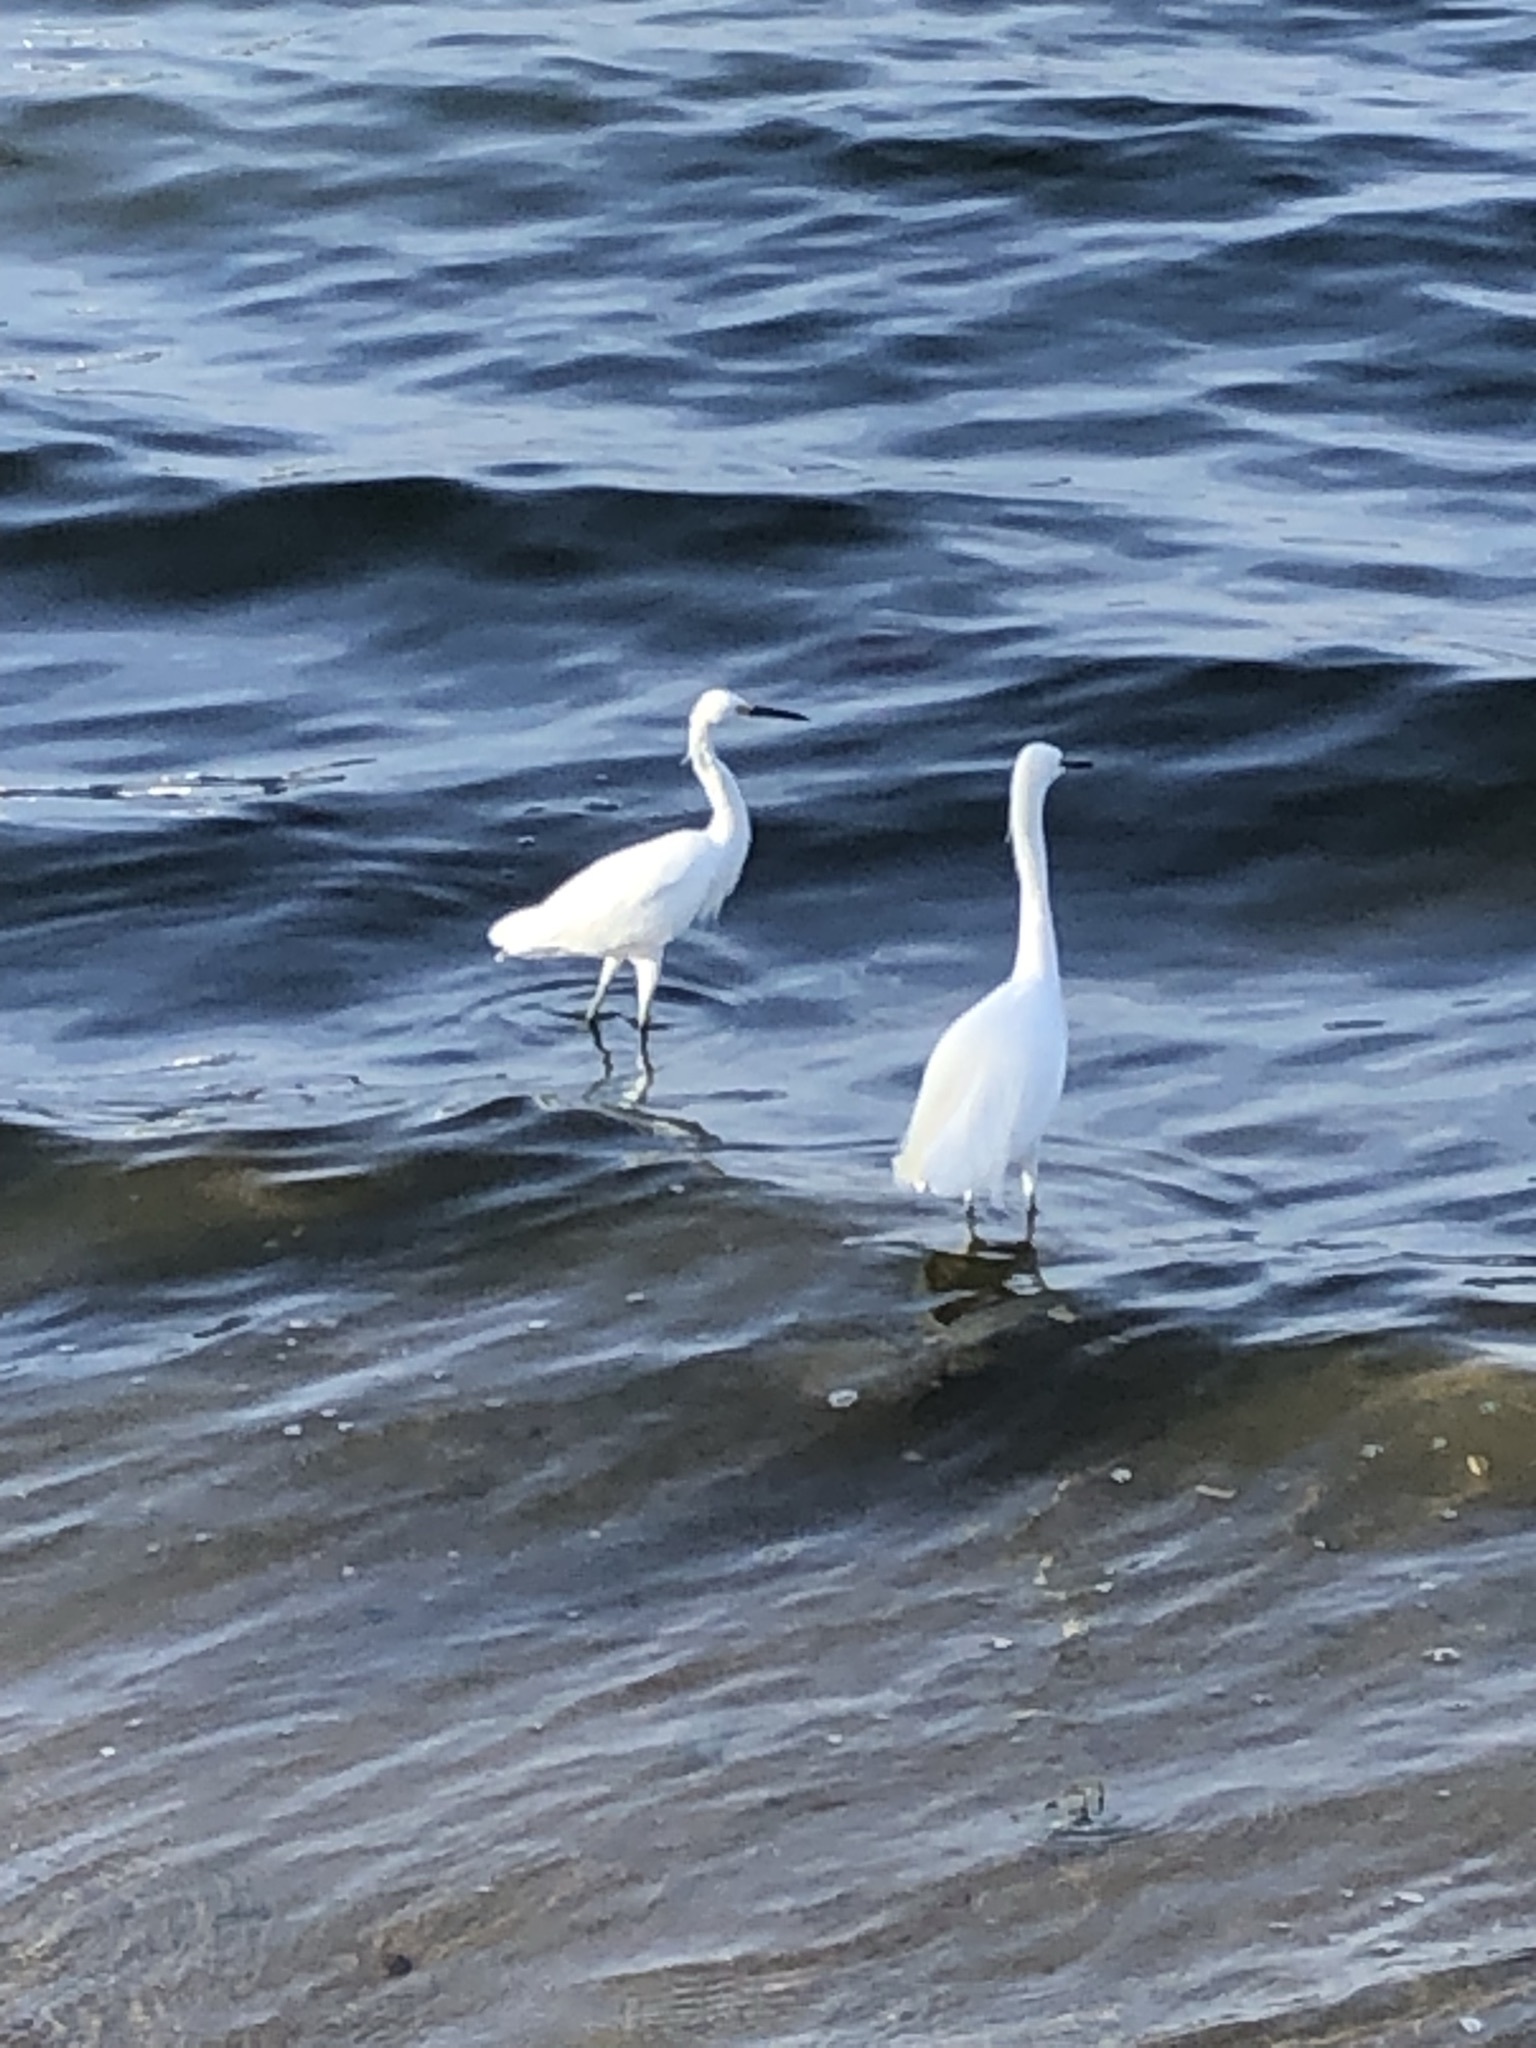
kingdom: Animalia
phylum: Chordata
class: Aves
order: Pelecaniformes
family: Ardeidae
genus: Egretta
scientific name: Egretta thula
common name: Snowy egret
